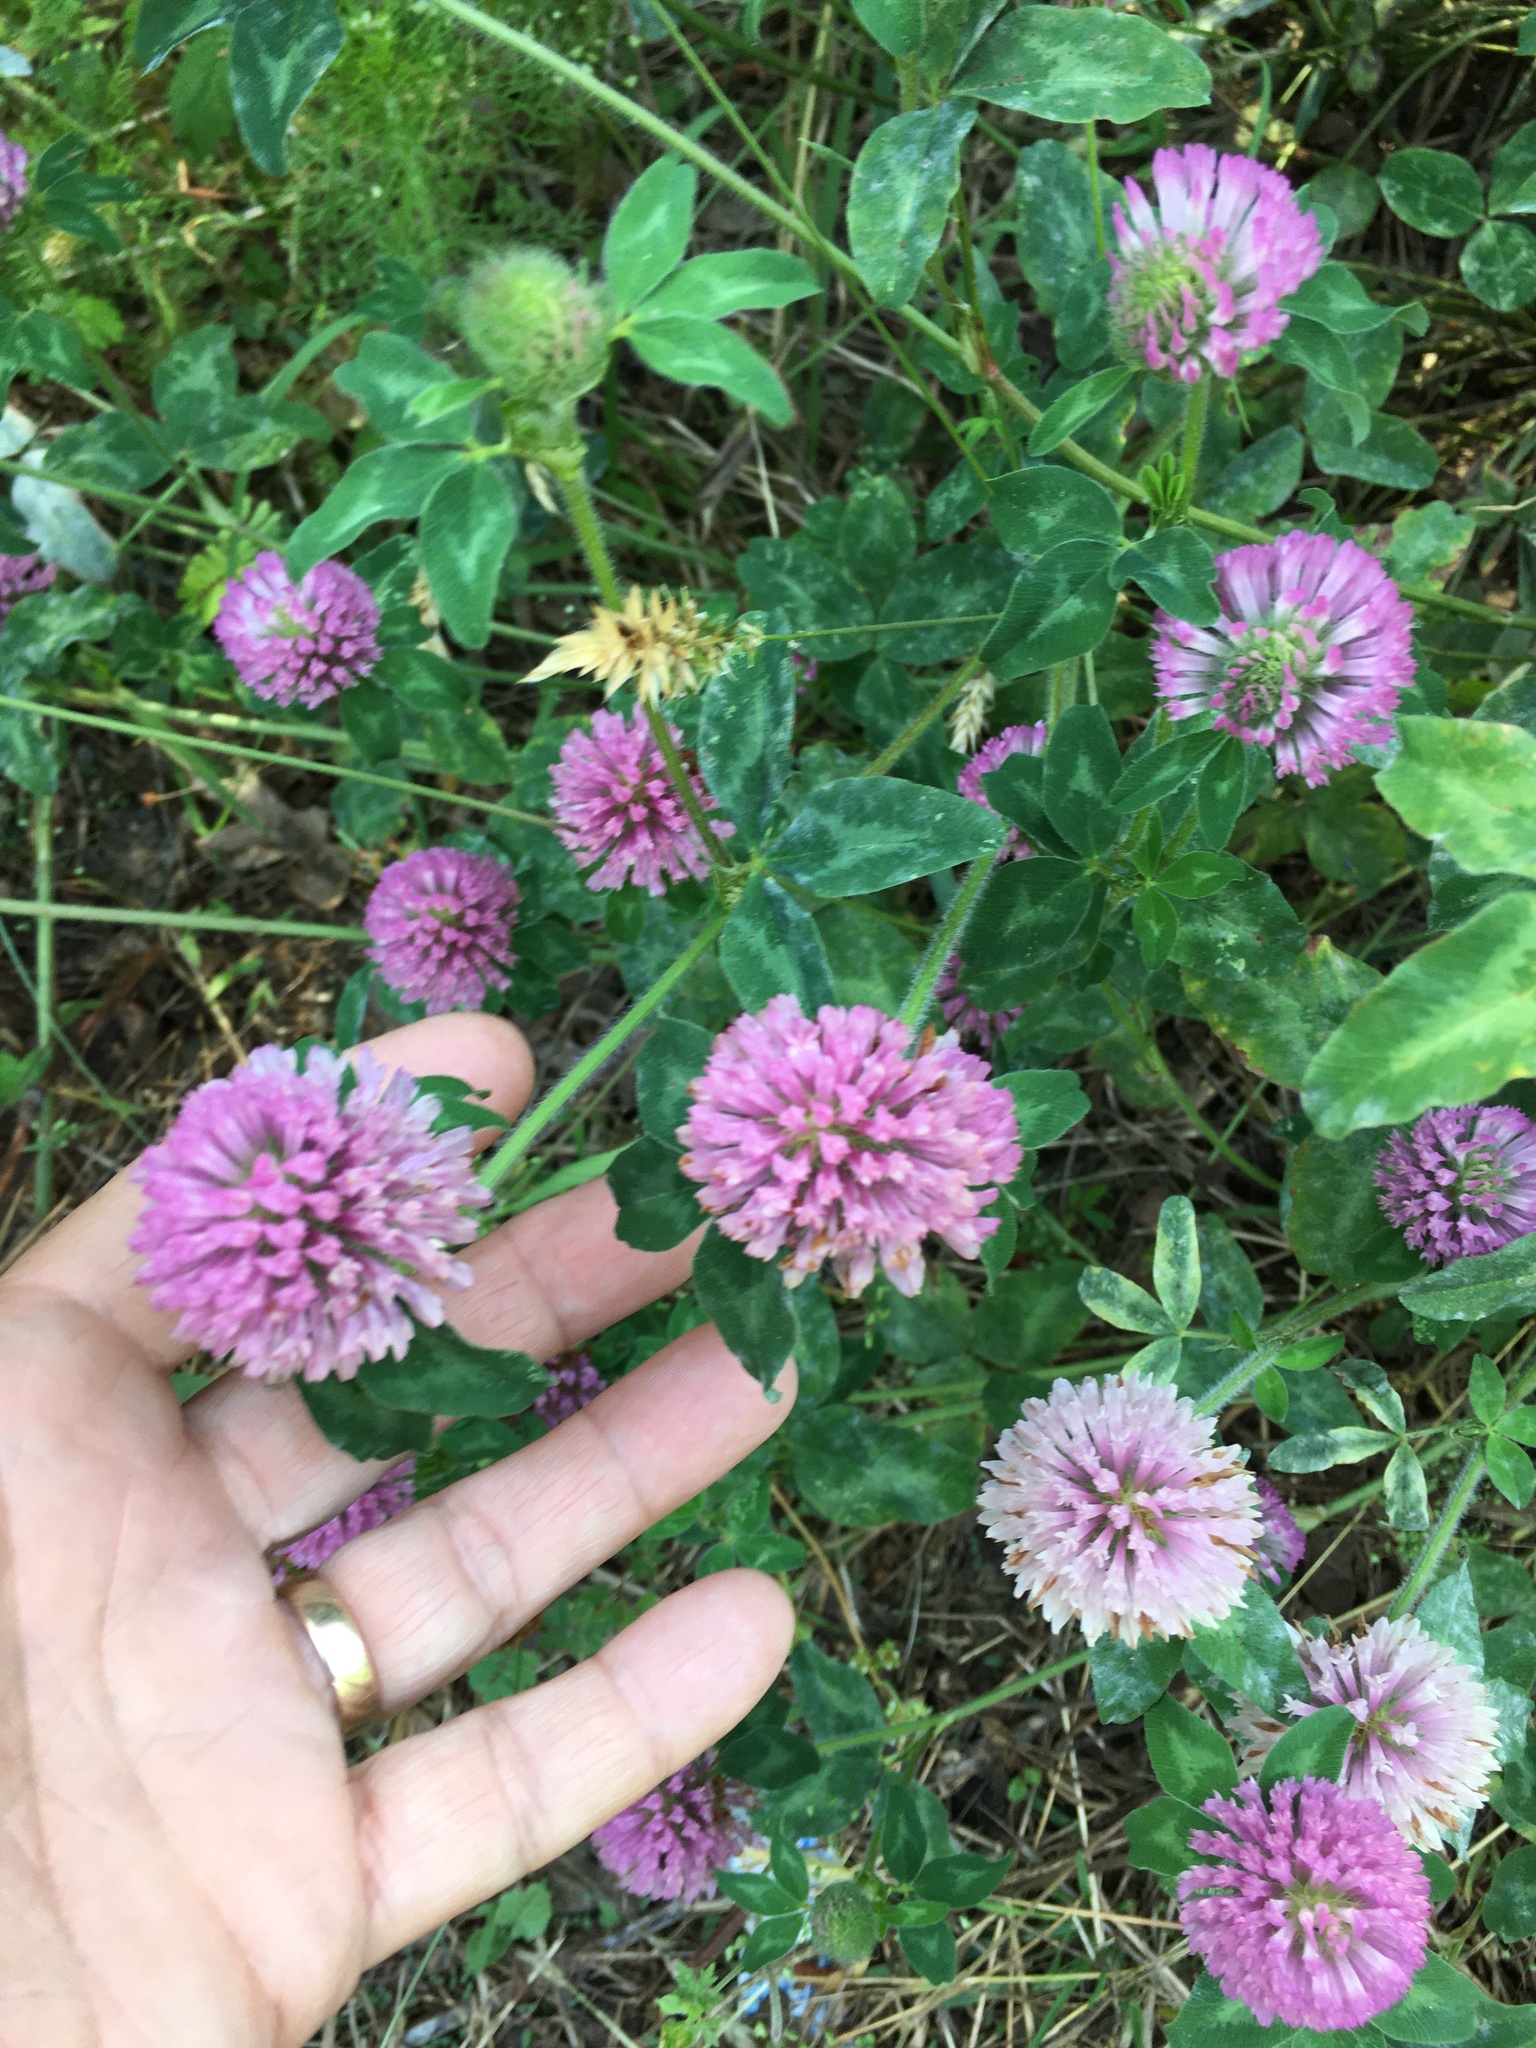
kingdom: Plantae
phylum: Tracheophyta
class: Magnoliopsida
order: Fabales
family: Fabaceae
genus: Trifolium
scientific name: Trifolium pratense
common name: Red clover
